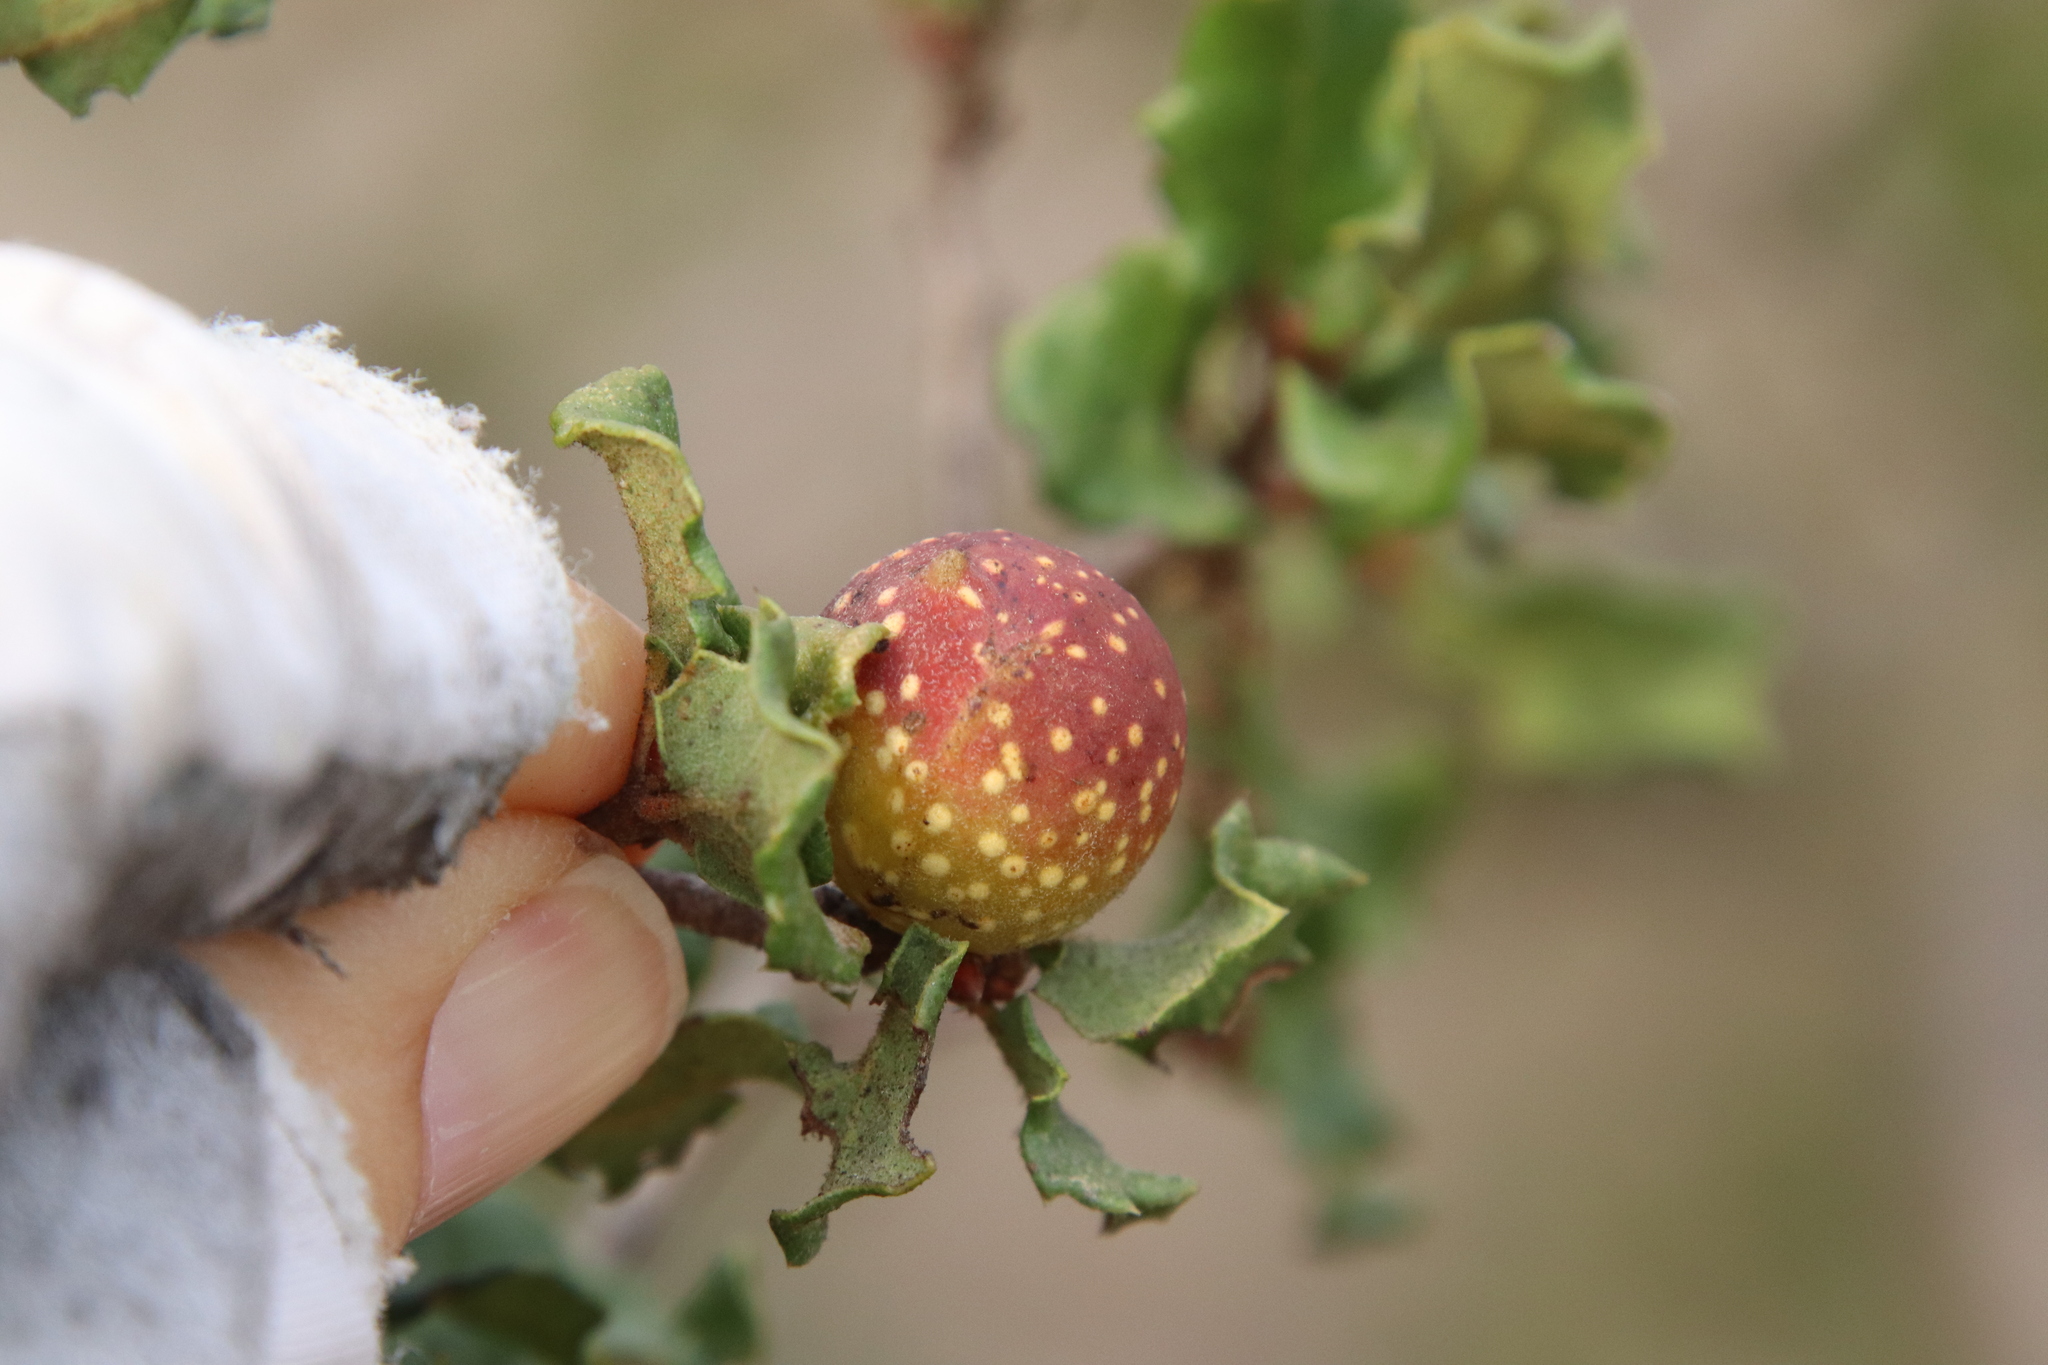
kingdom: Animalia
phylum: Arthropoda
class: Insecta
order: Hymenoptera
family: Cynipidae
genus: Burnettweldia
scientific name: Burnettweldia
